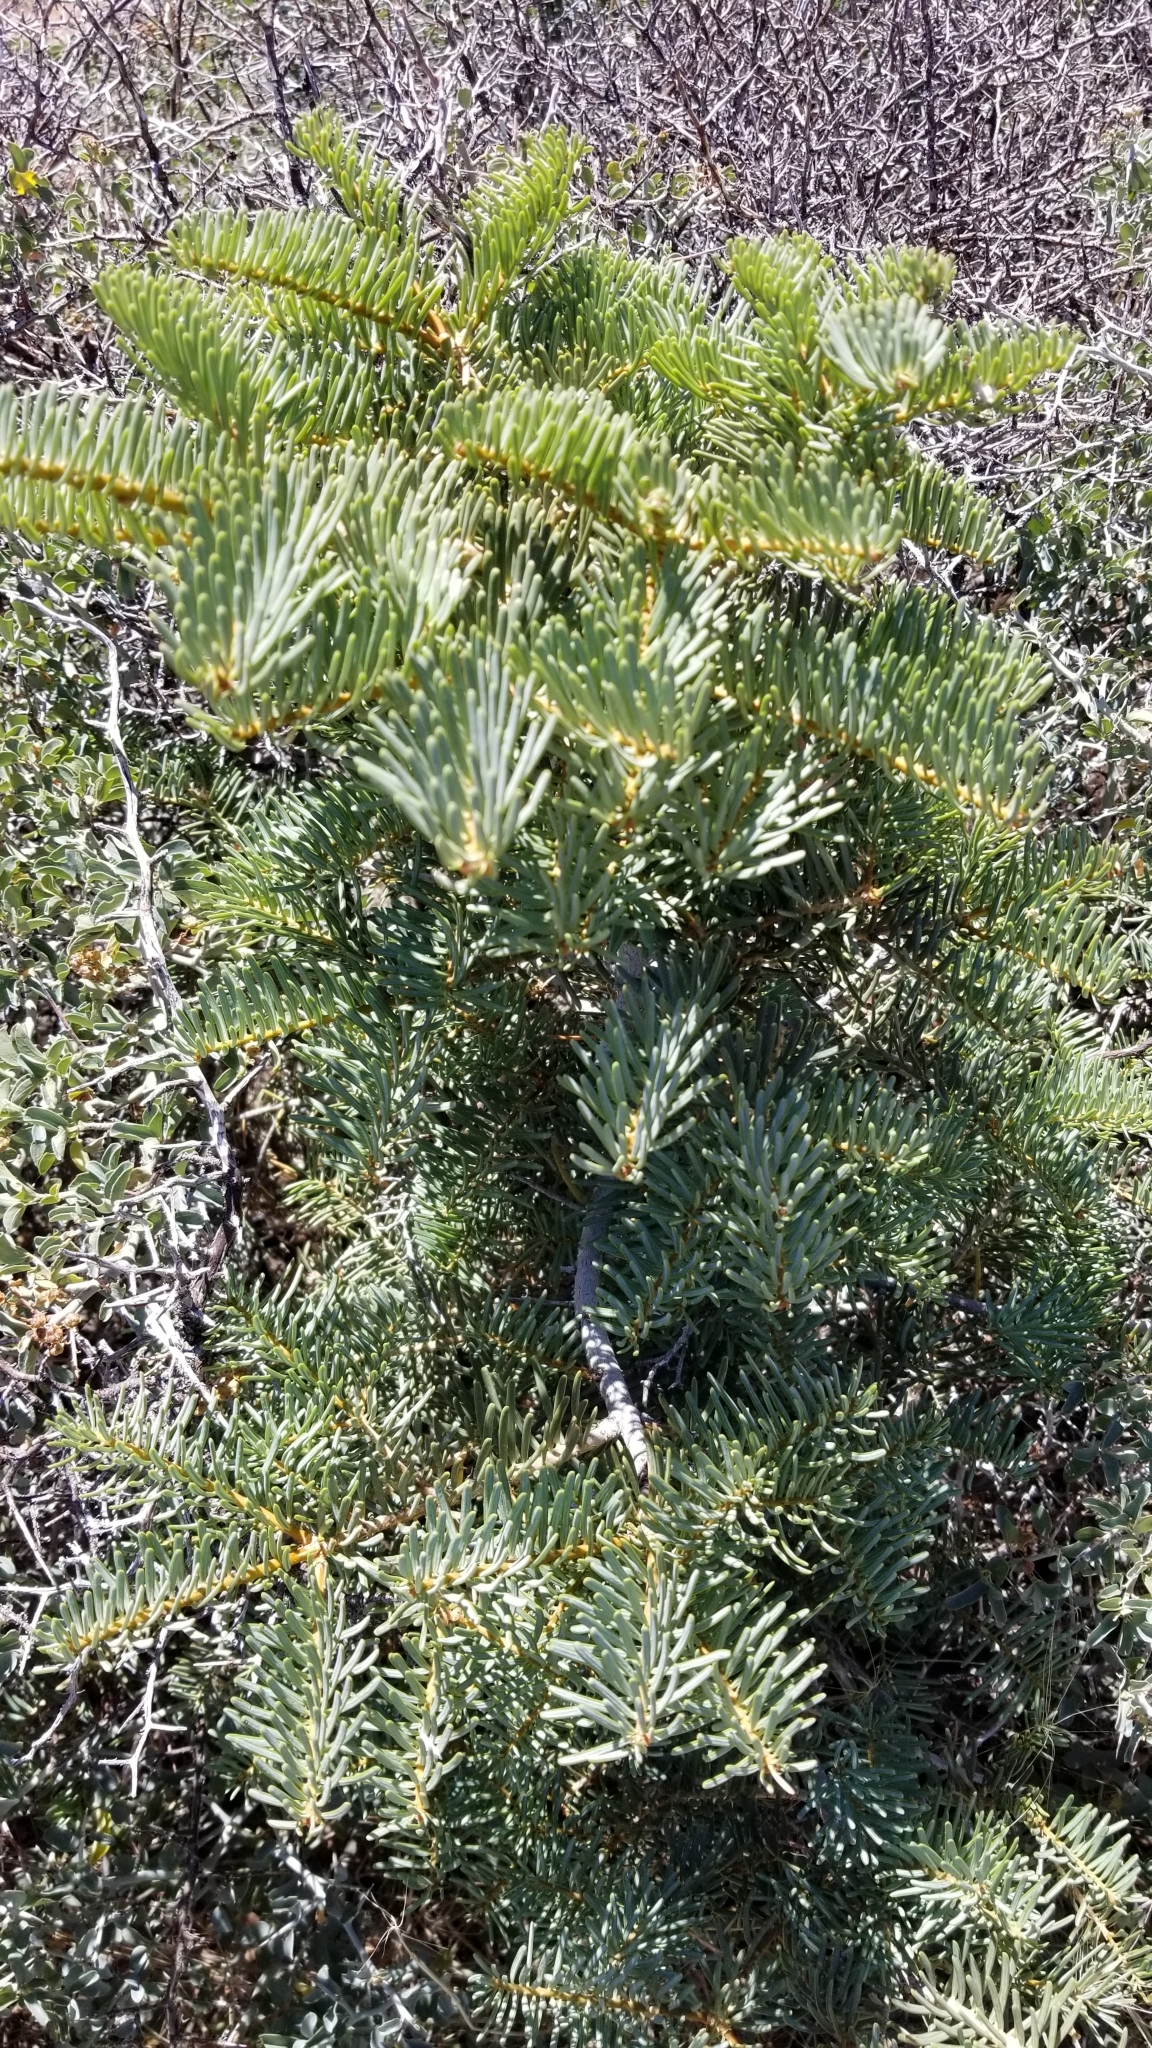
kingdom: Plantae
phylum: Tracheophyta
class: Pinopsida
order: Pinales
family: Pinaceae
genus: Abies
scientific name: Abies concolor
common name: Colorado fir
